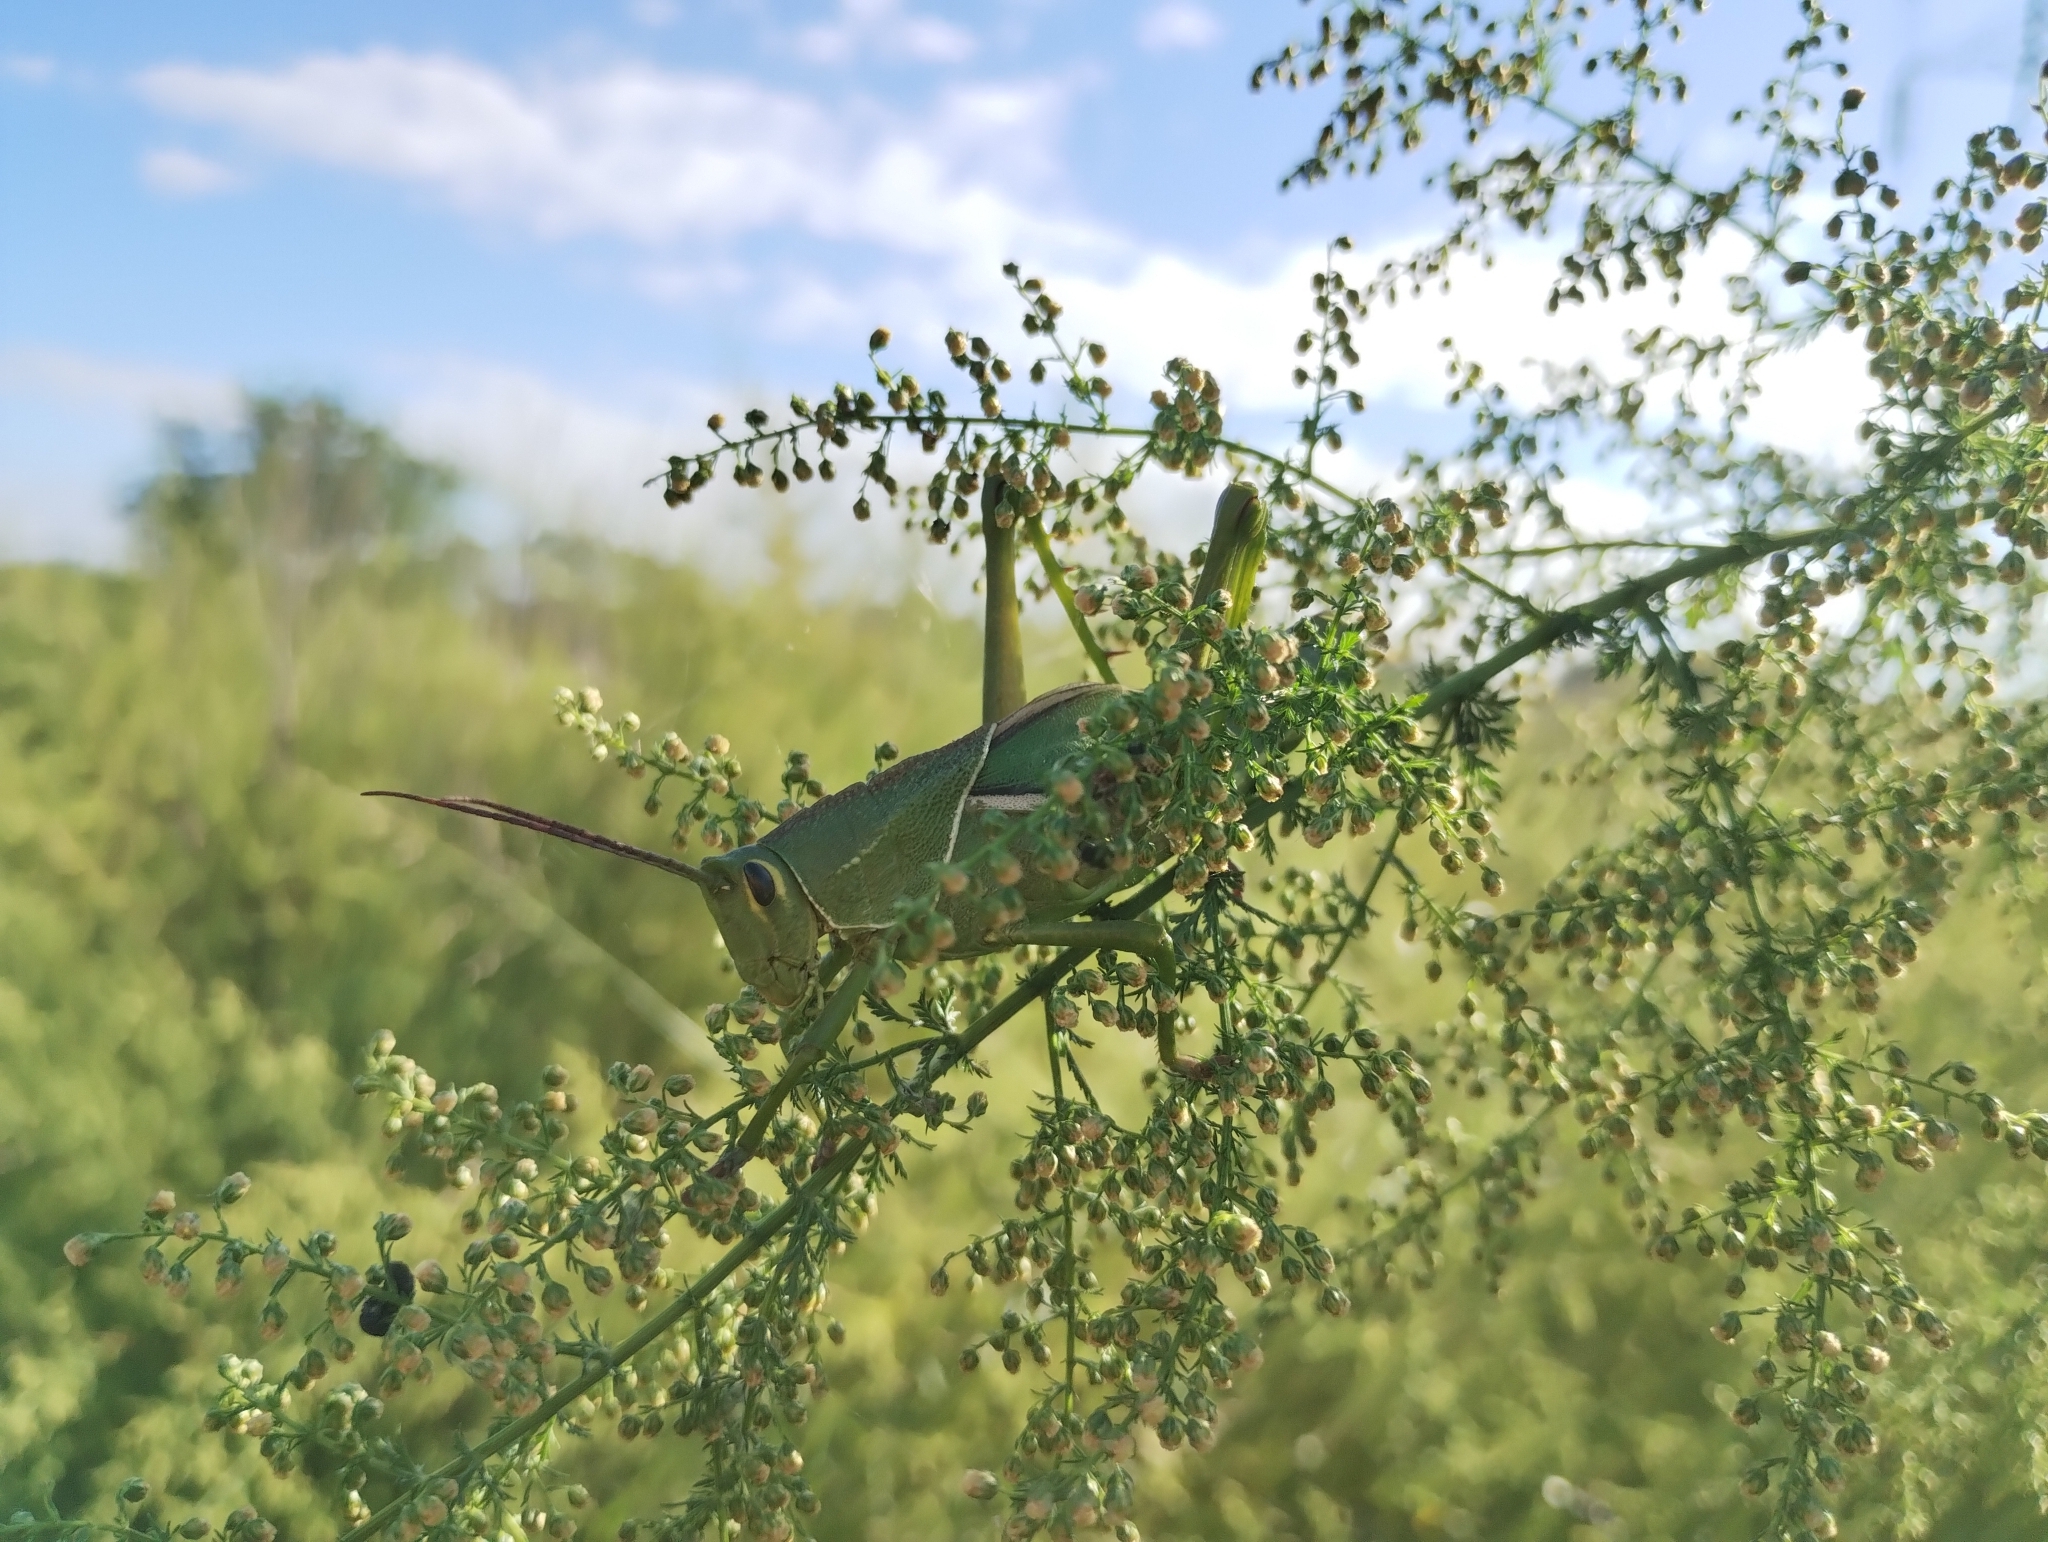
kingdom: Animalia
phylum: Arthropoda
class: Insecta
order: Orthoptera
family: Romaleidae
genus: Staleochlora
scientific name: Staleochlora viridicata
